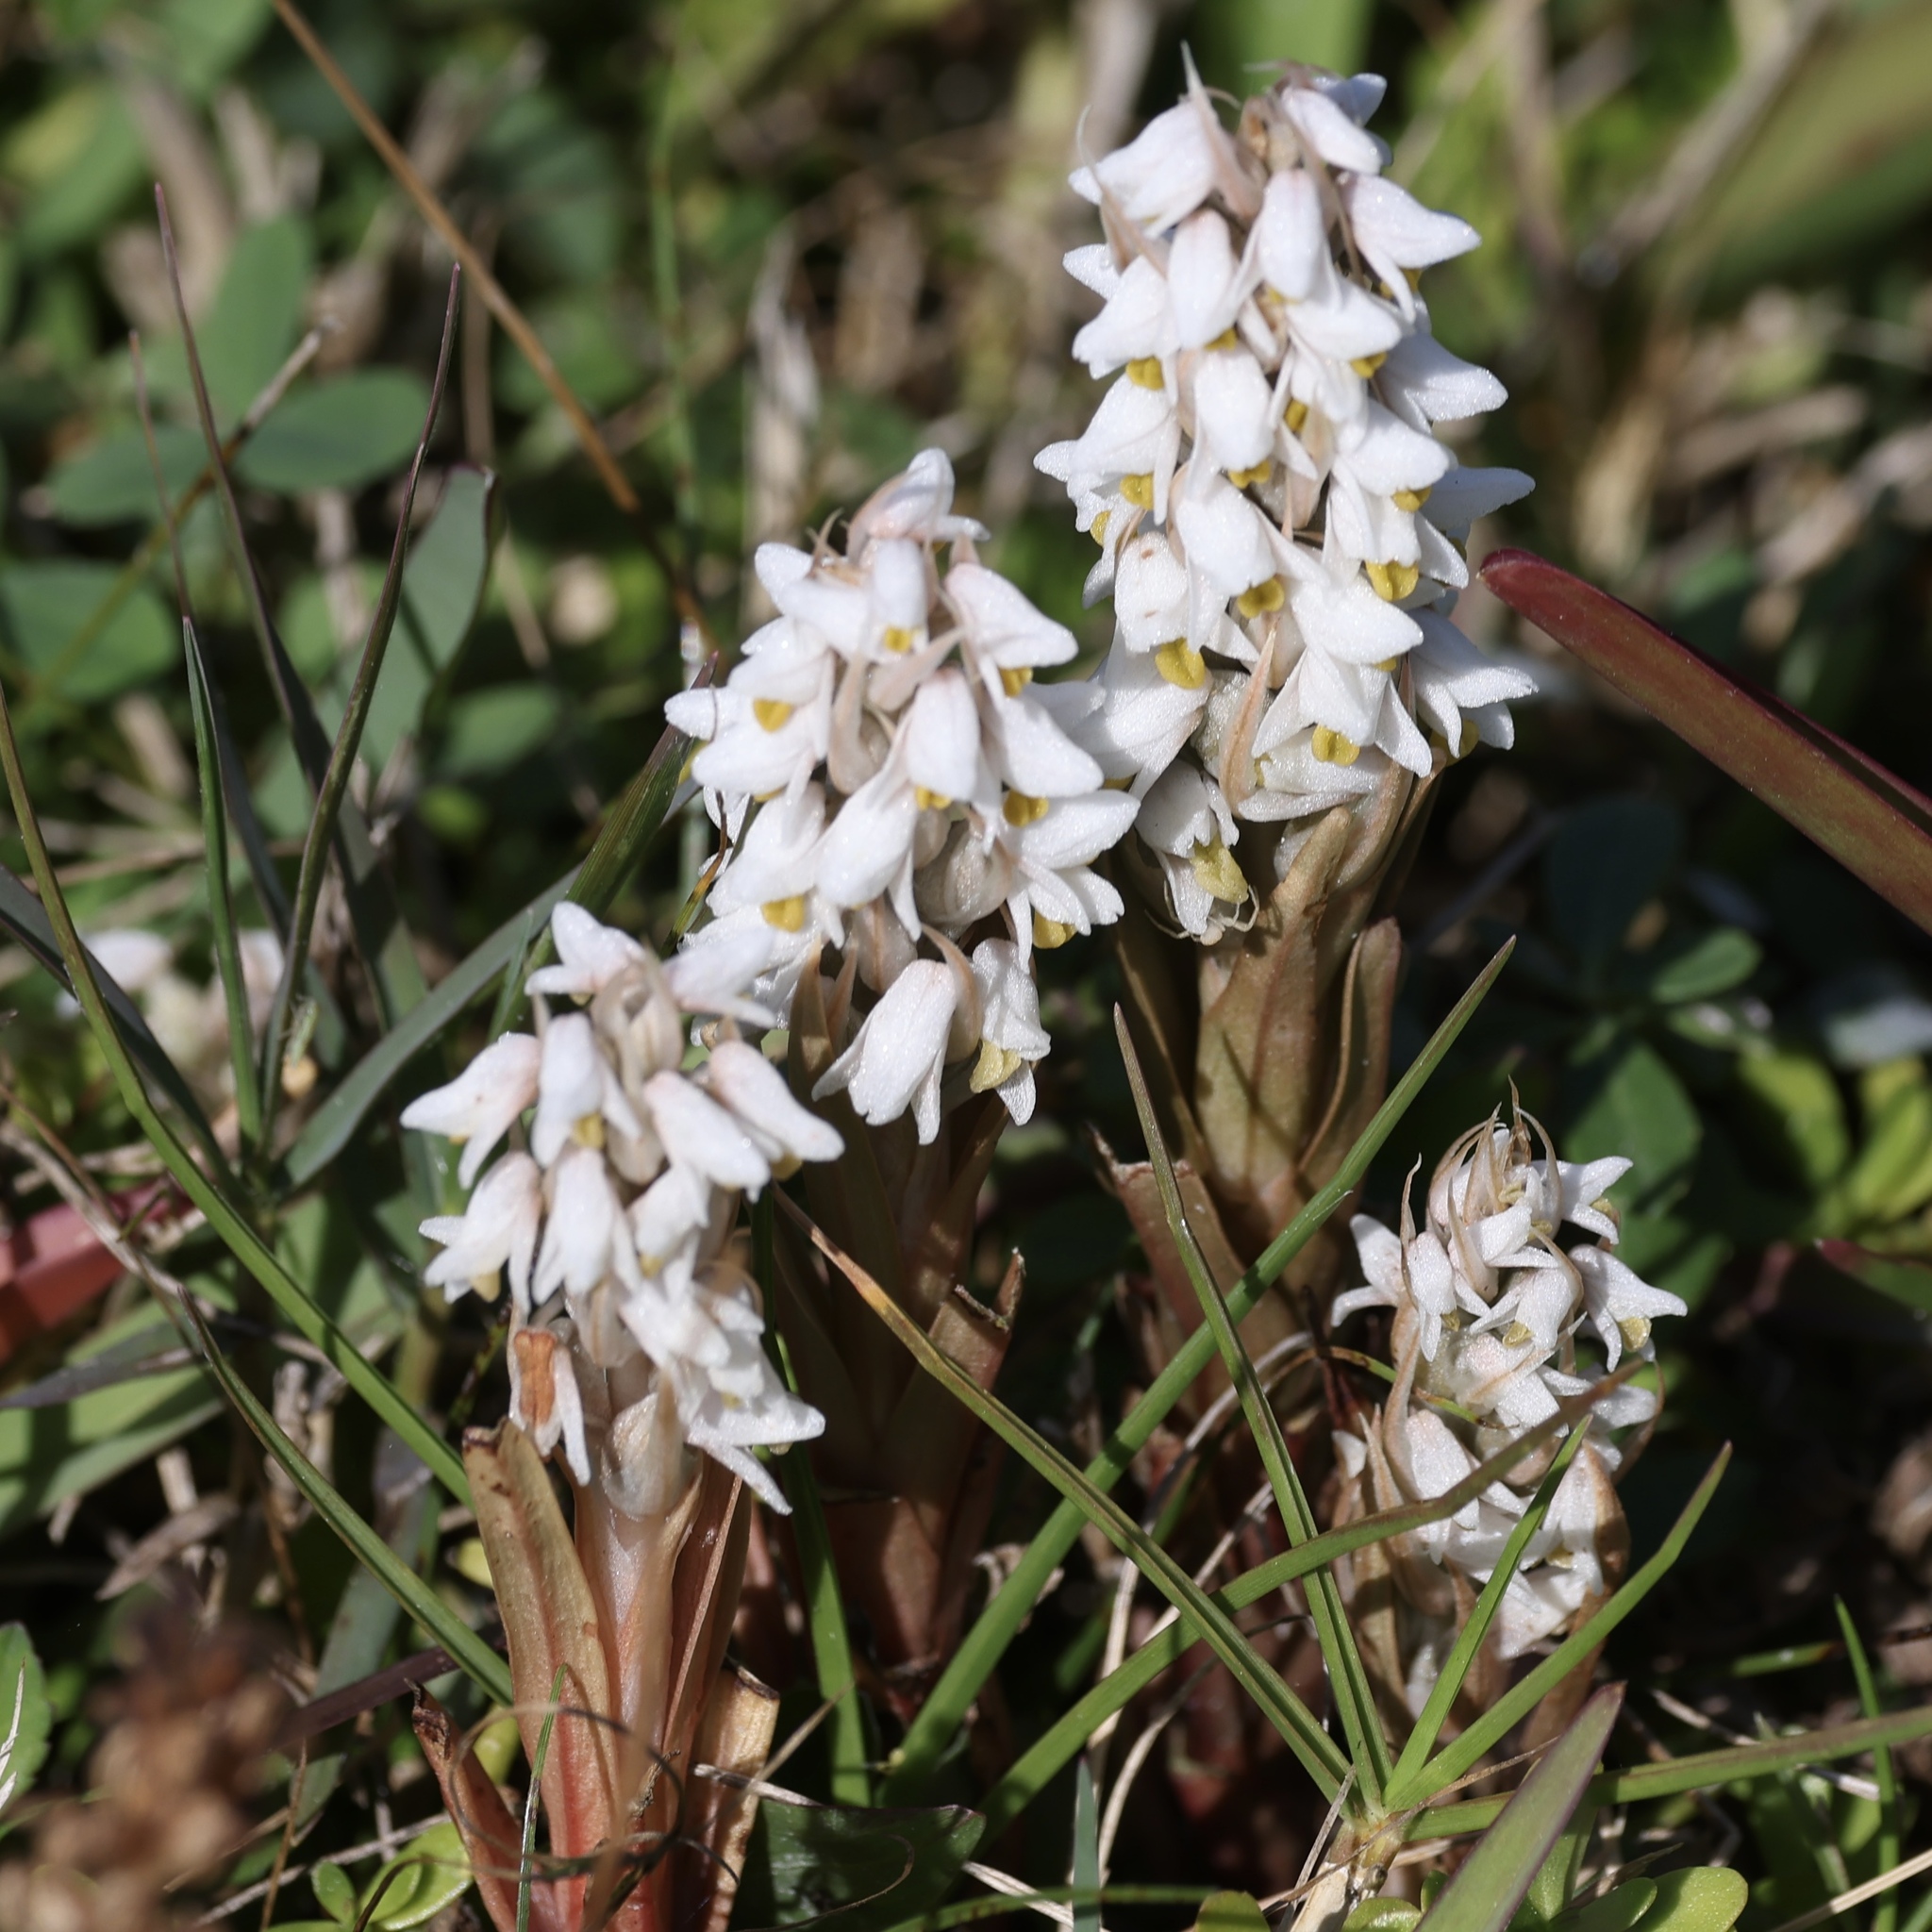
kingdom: Plantae
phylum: Tracheophyta
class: Liliopsida
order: Asparagales
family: Orchidaceae
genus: Zeuxine
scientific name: Zeuxine strateumatica
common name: Soldier's orchid
